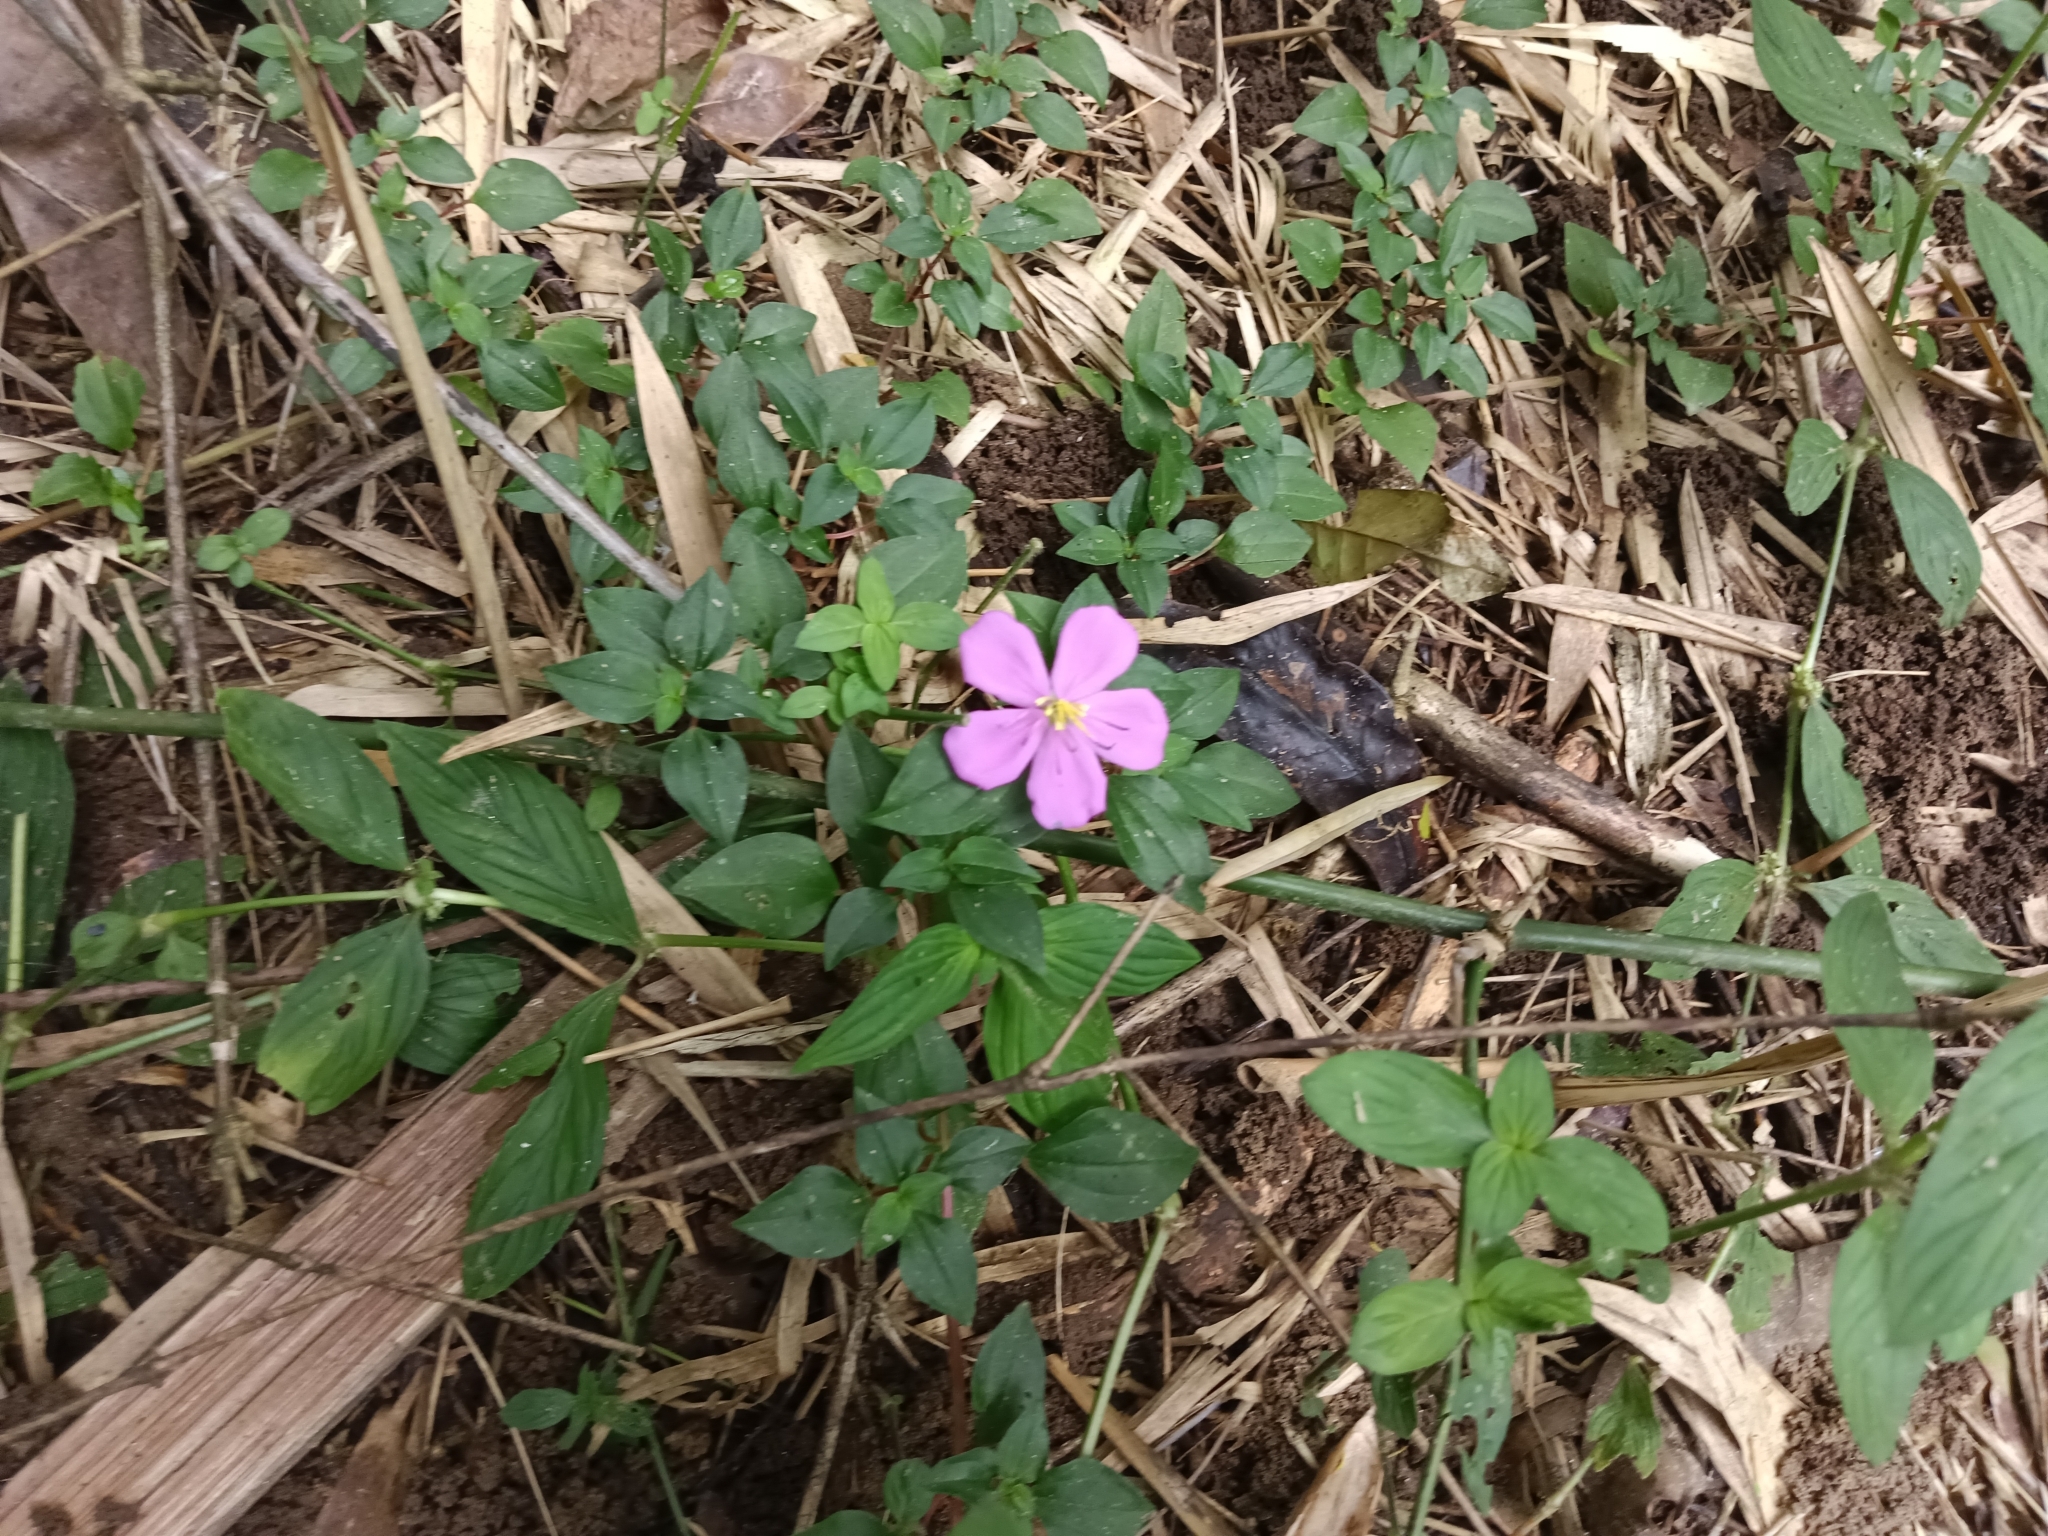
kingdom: Plantae
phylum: Tracheophyta
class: Magnoliopsida
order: Myrtales
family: Melastomataceae
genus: Heterotis
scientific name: Heterotis rotundifolia
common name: Pinklady
